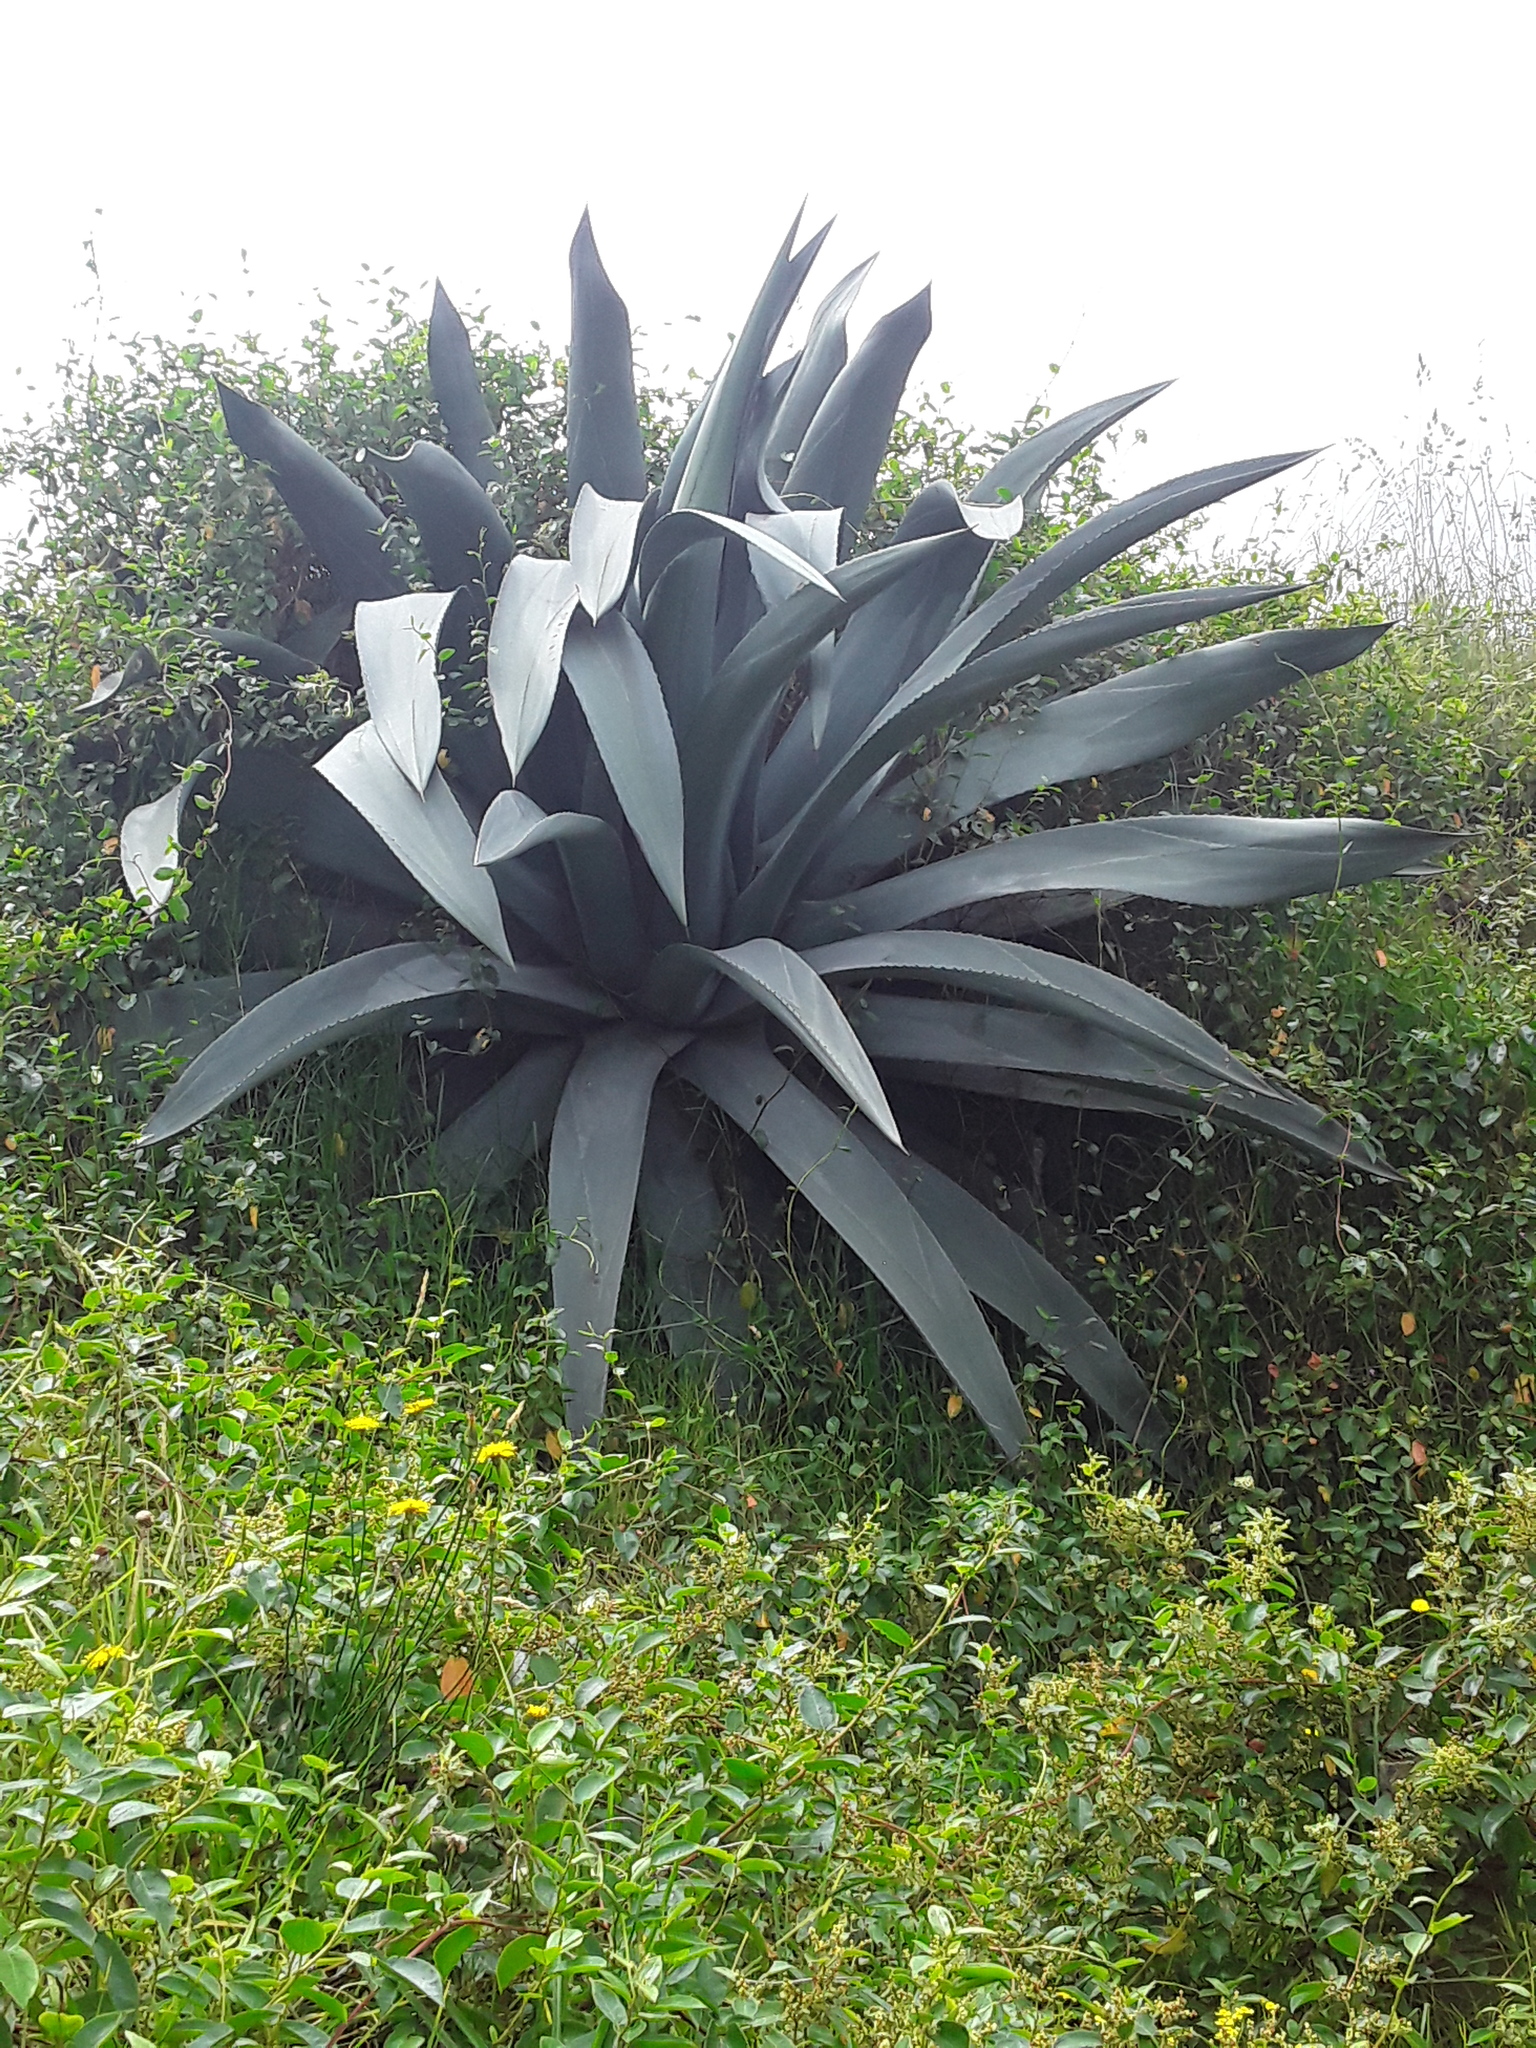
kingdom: Plantae
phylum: Tracheophyta
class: Liliopsida
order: Asparagales
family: Asparagaceae
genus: Agave
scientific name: Agave americana
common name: Centuryplant
